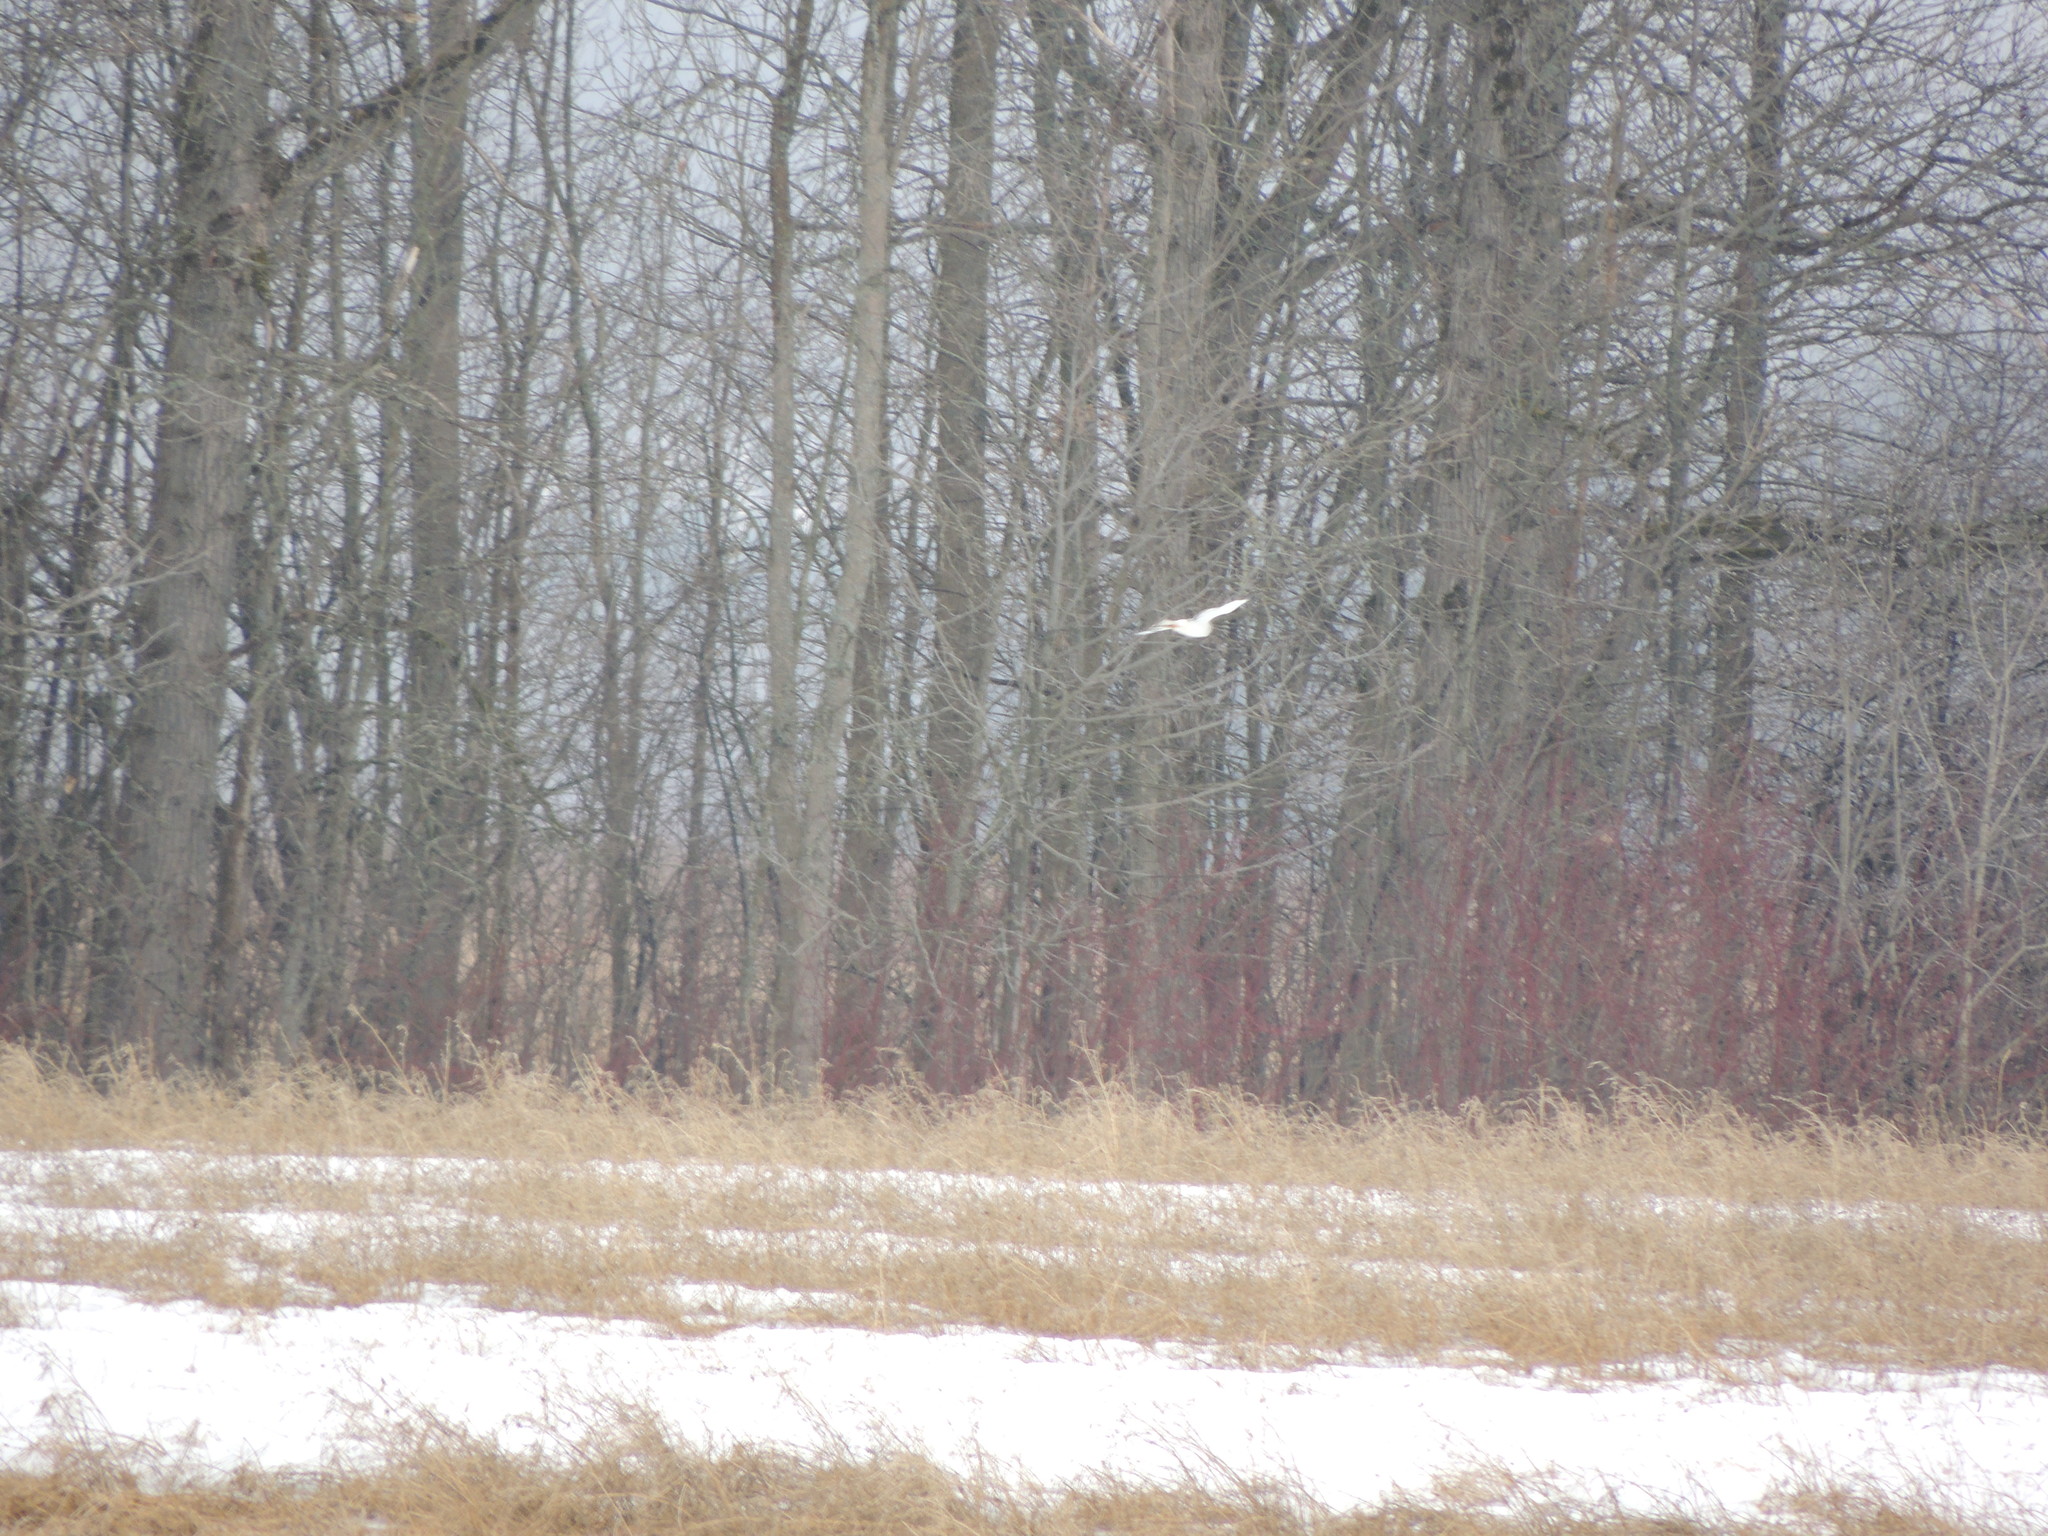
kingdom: Animalia
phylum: Chordata
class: Aves
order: Accipitriformes
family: Accipitridae
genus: Circus
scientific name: Circus cyaneus
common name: Hen harrier
